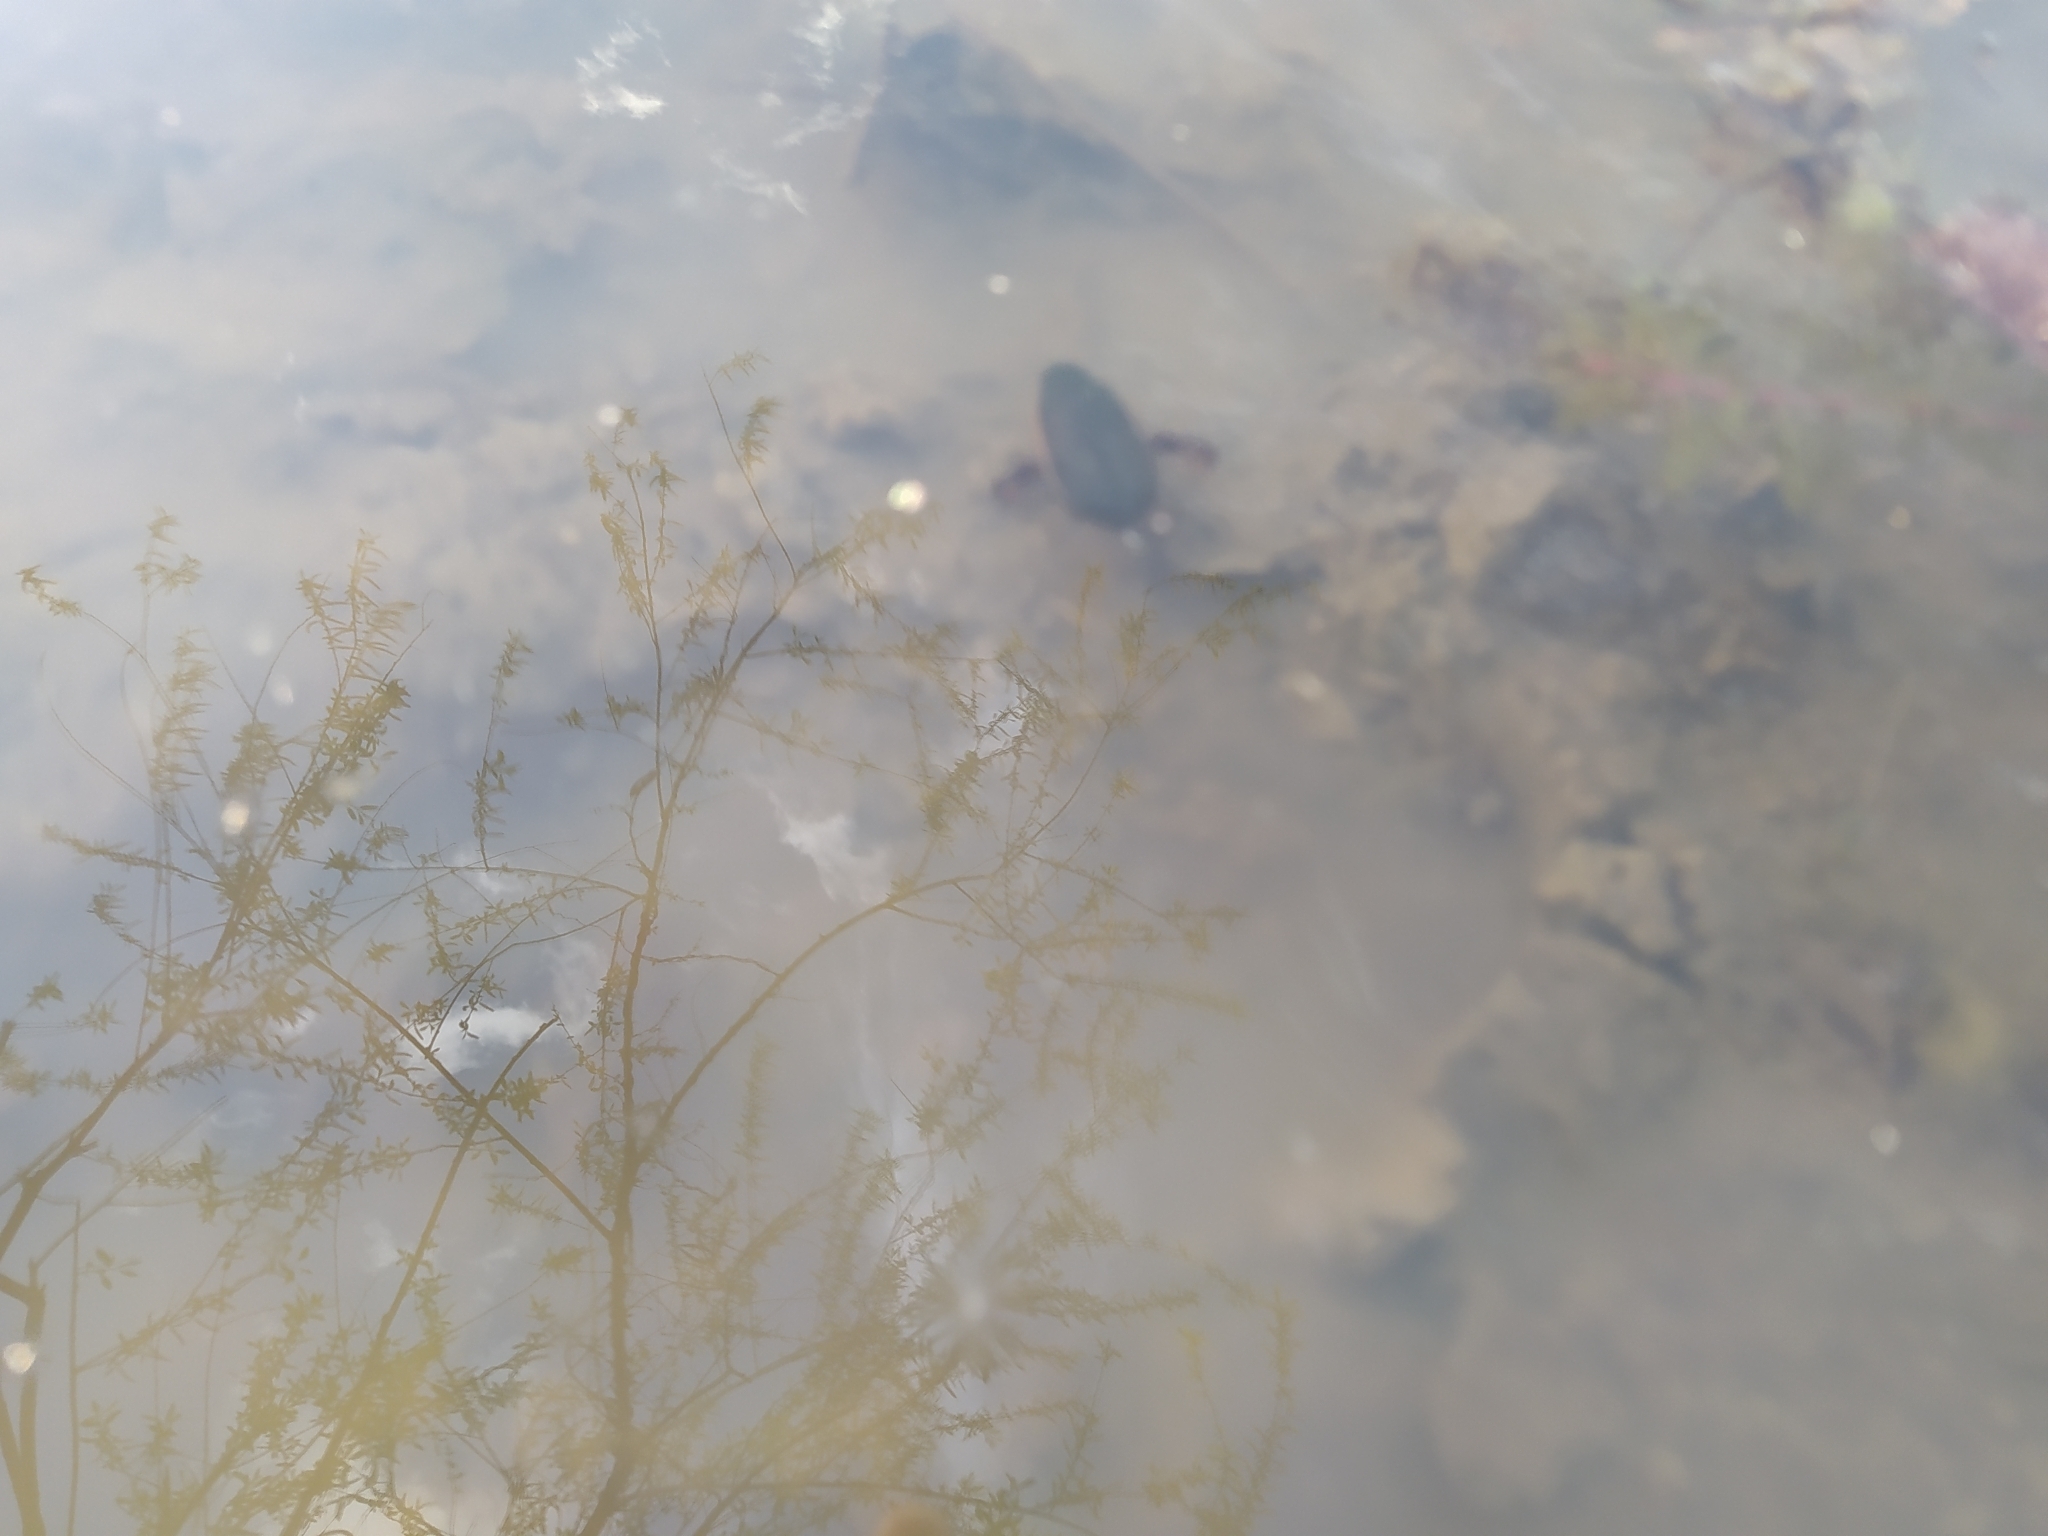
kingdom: Animalia
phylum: Arthropoda
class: Insecta
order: Coleoptera
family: Dytiscidae
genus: Cybister
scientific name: Cybister lateralimarginalis
